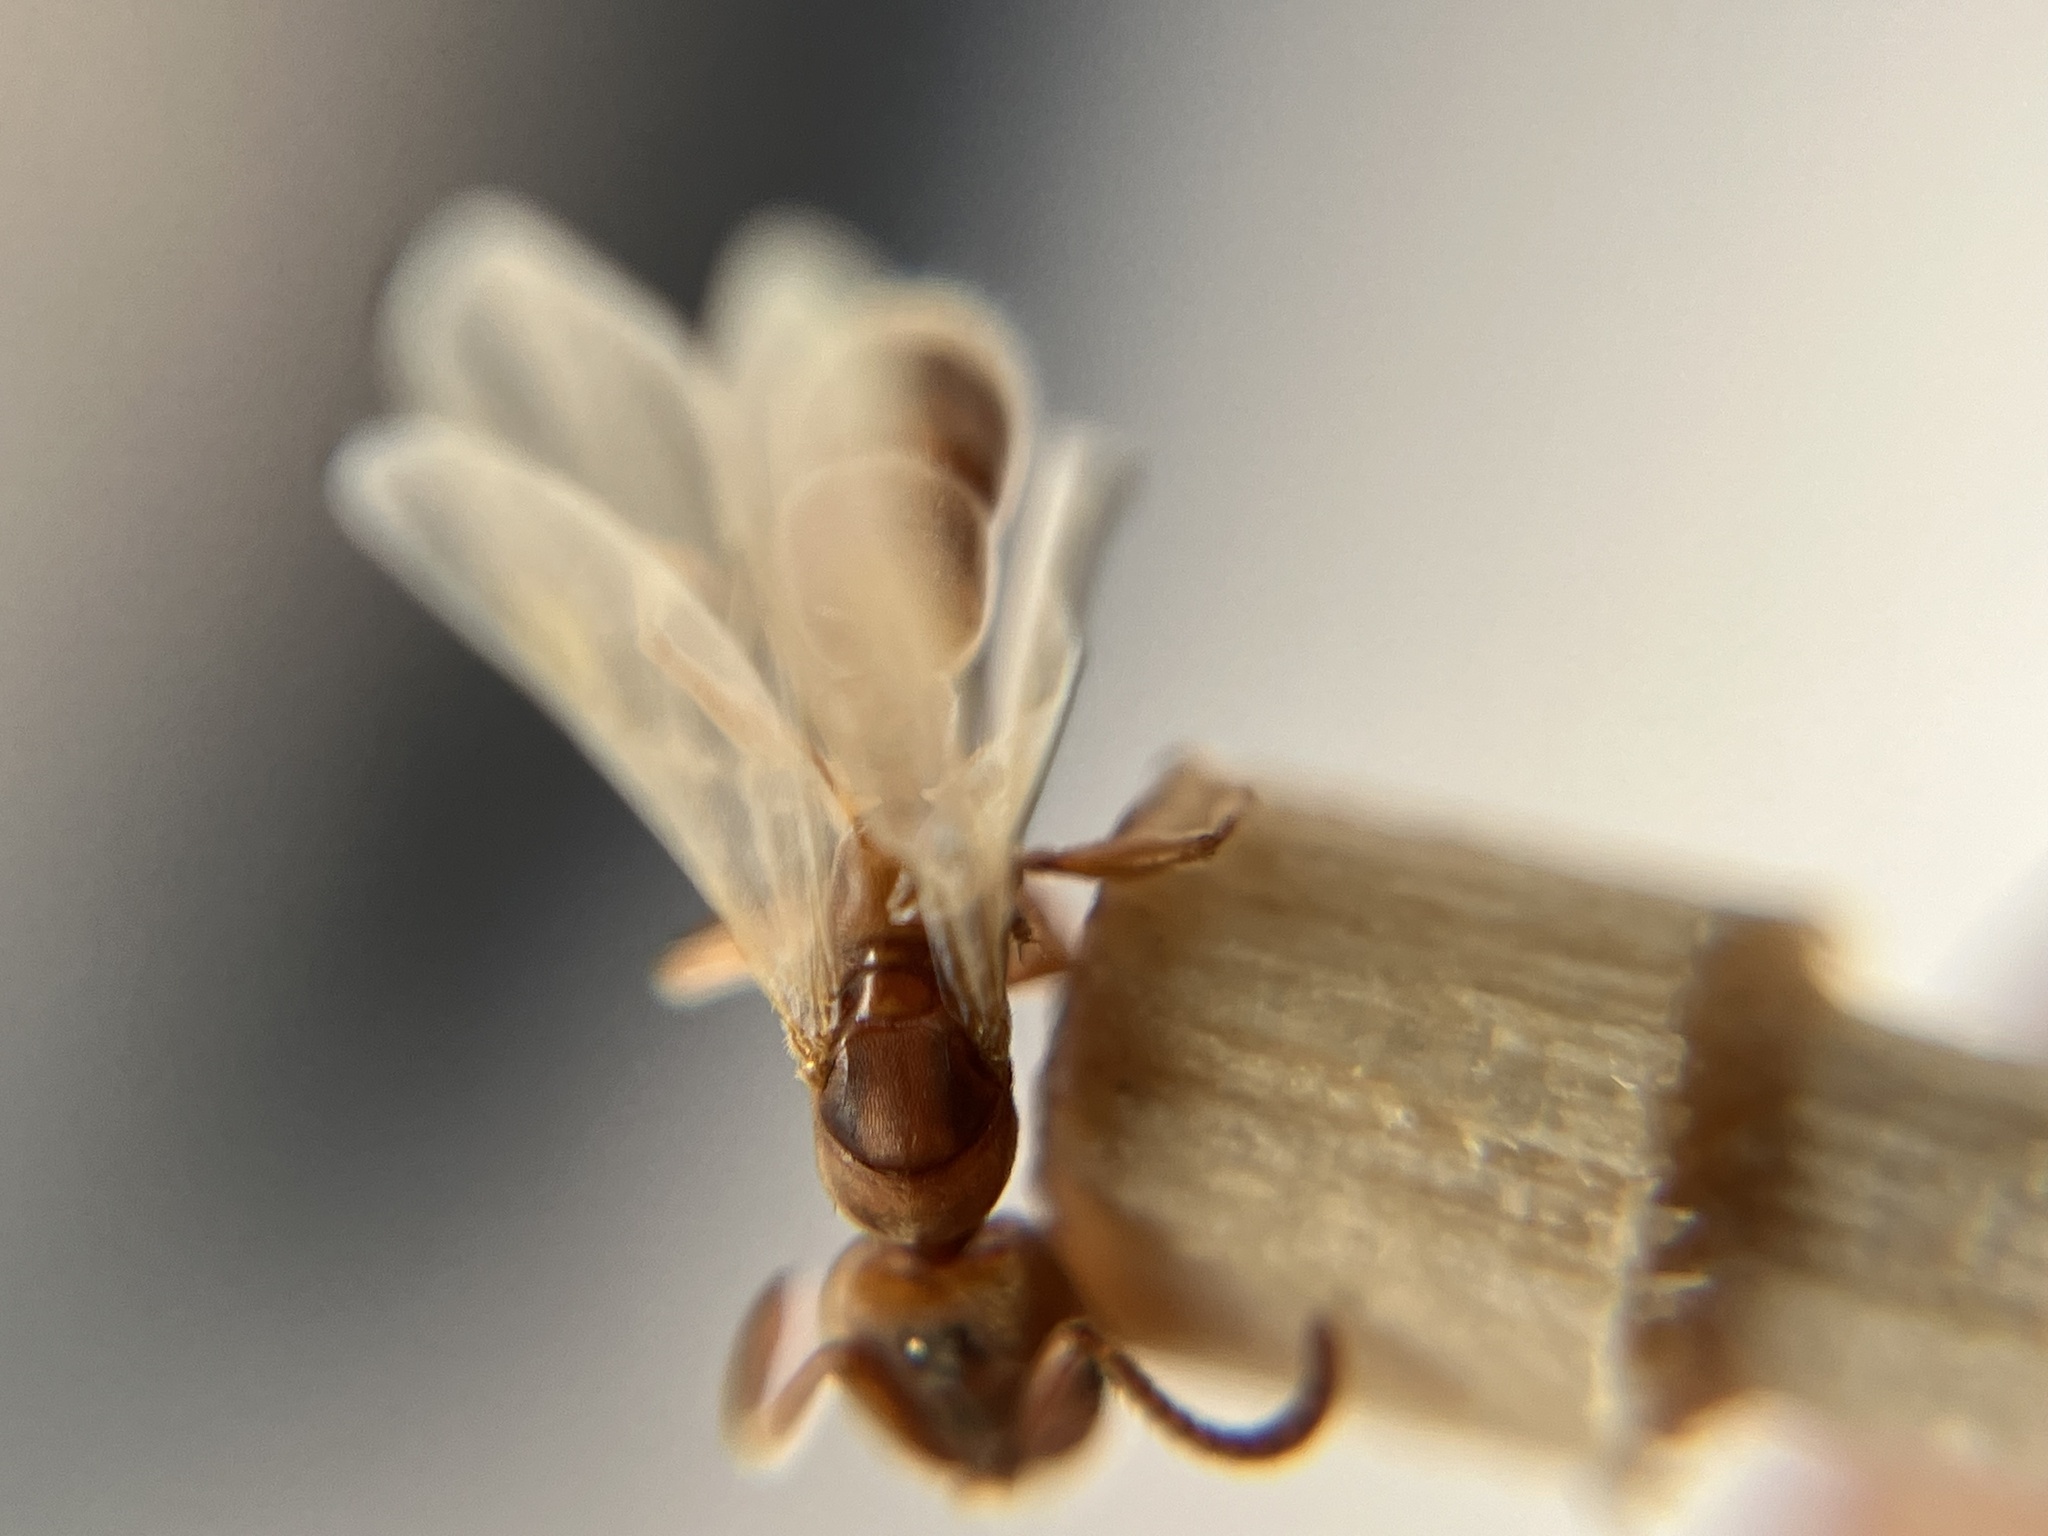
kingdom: Animalia
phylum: Arthropoda
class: Insecta
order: Hymenoptera
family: Formicidae
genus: Pachycondyla
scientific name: Pachycondyla darwinii
